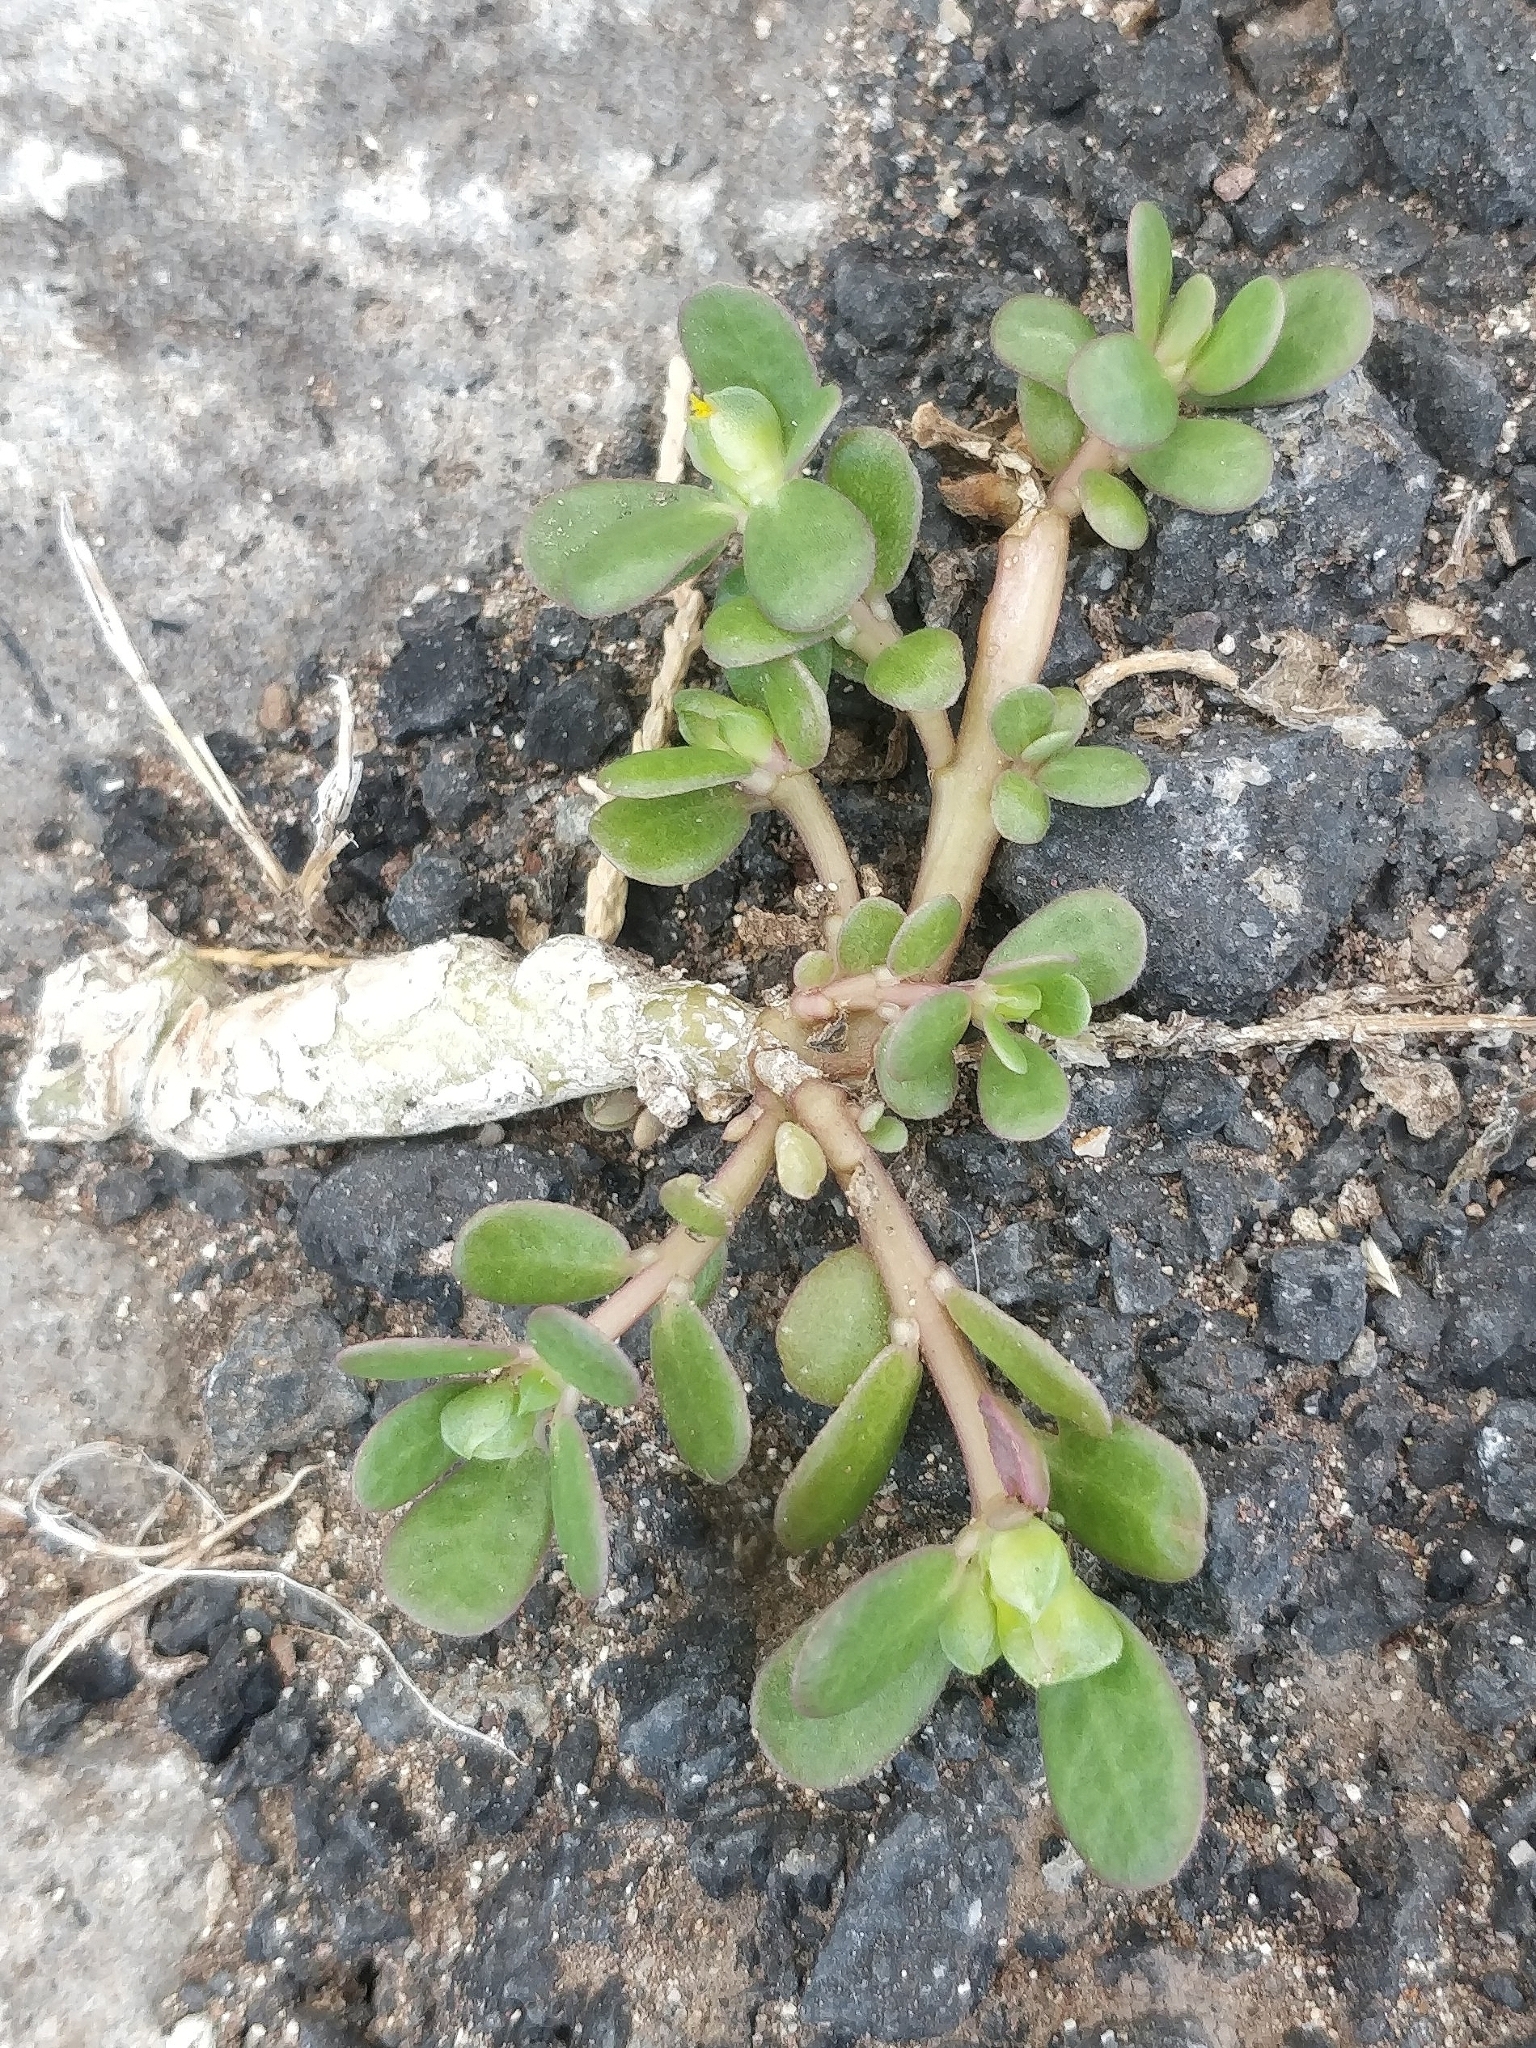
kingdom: Plantae
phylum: Tracheophyta
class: Magnoliopsida
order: Caryophyllales
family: Portulacaceae
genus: Portulaca
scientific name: Portulaca oleracea
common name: Common purslane
